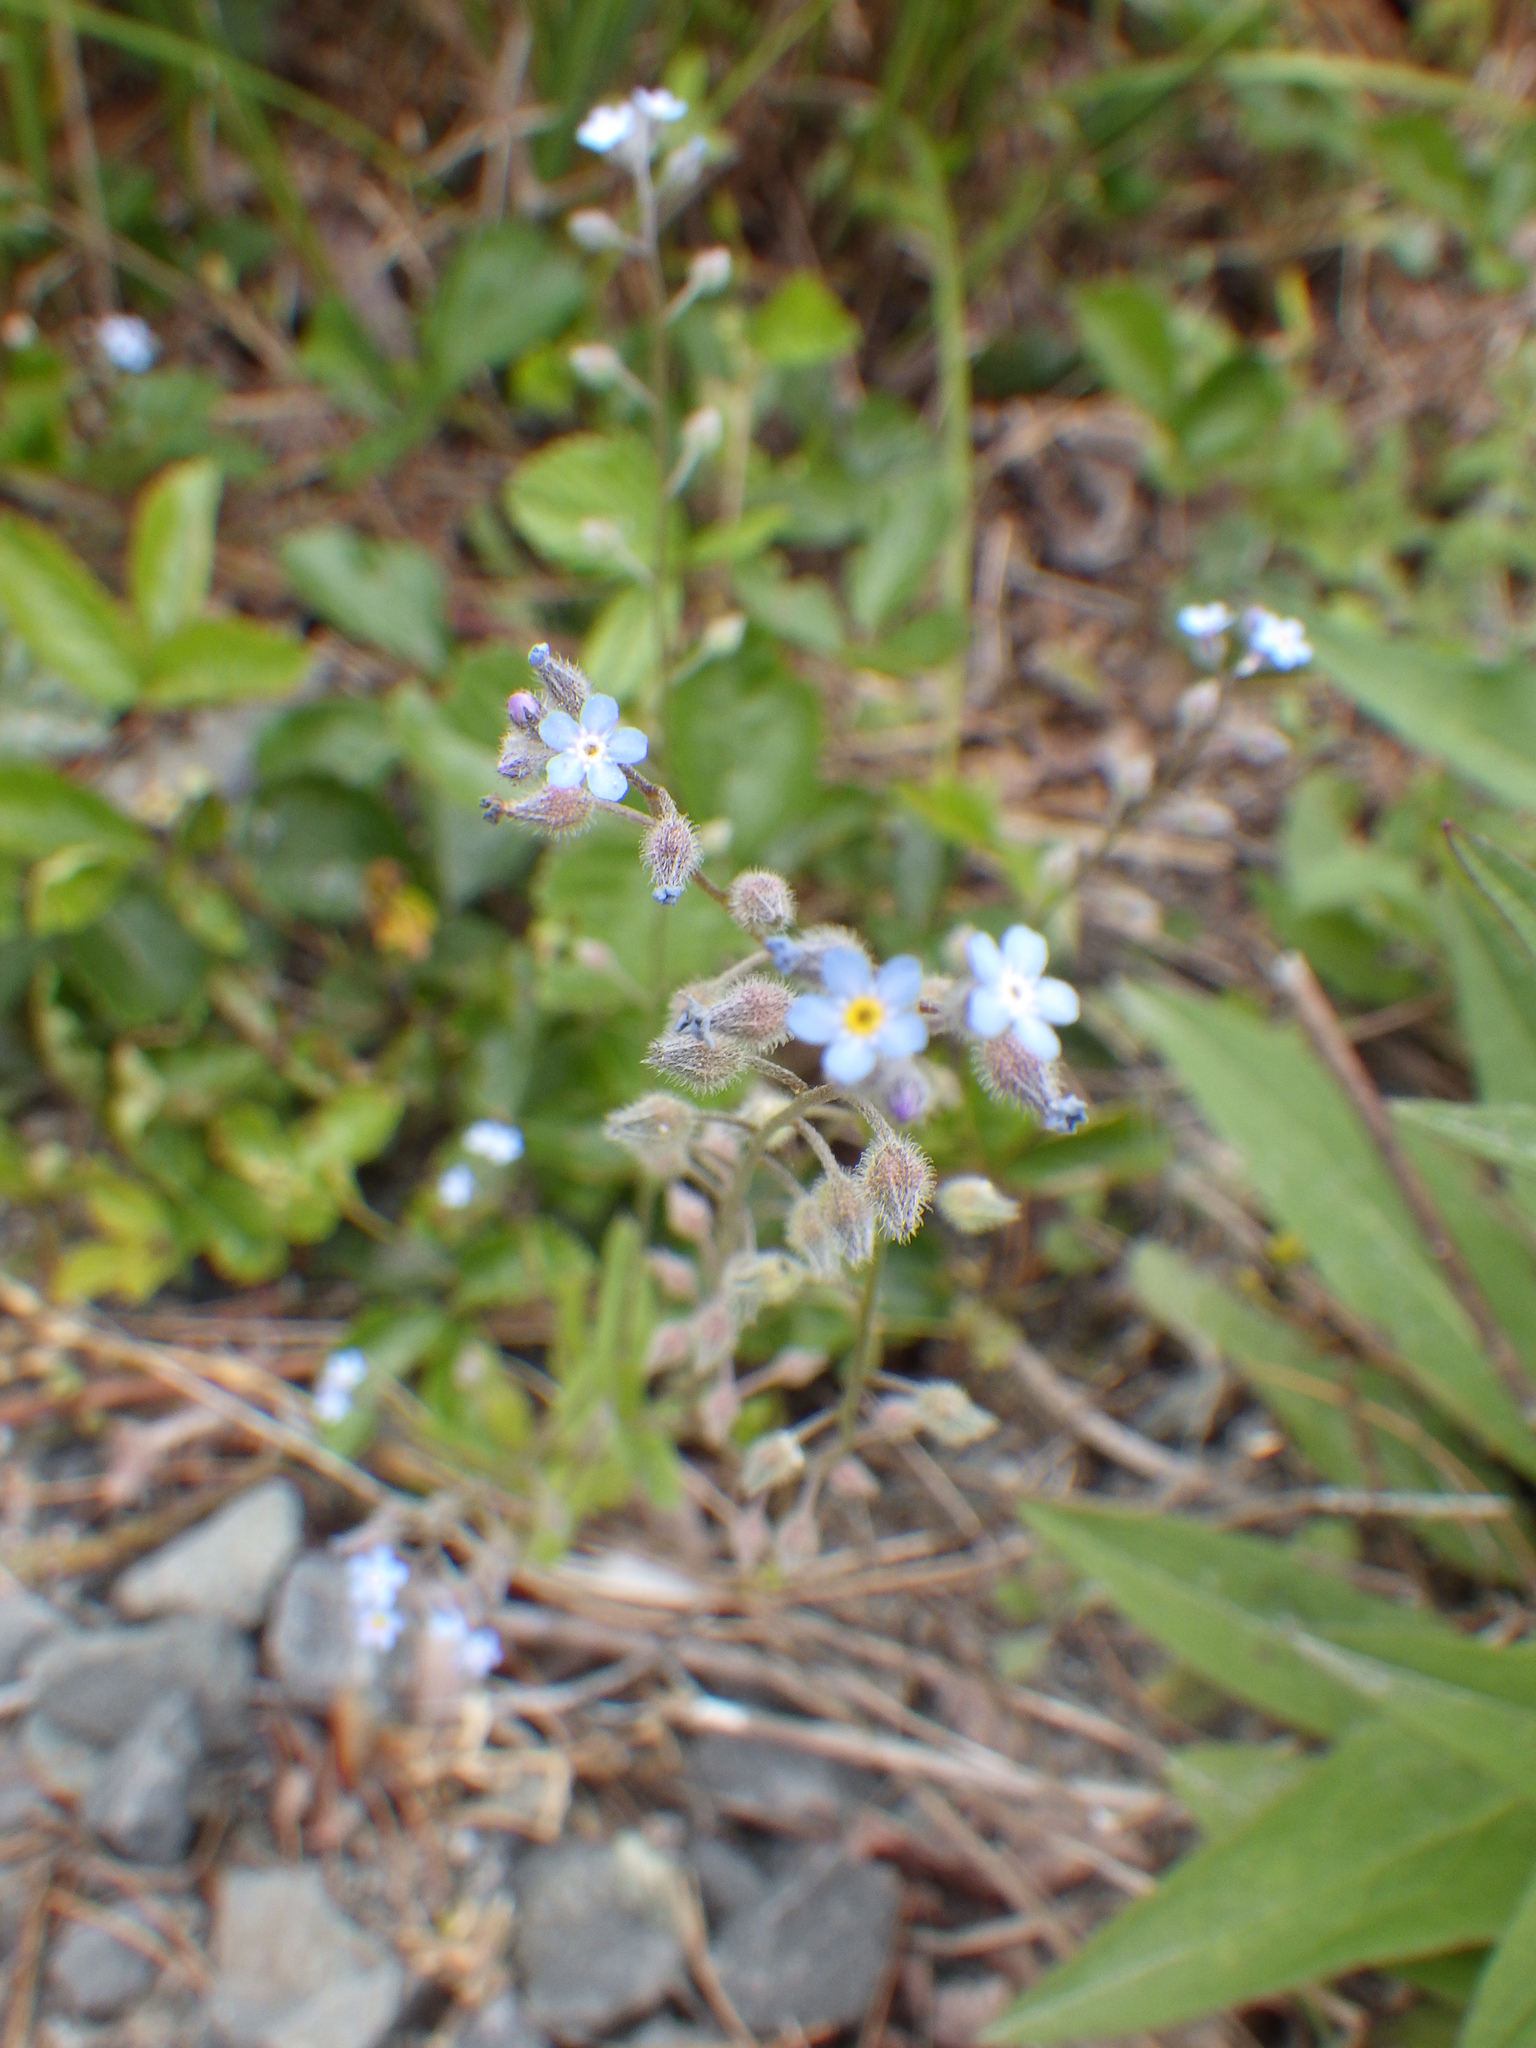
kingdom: Plantae
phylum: Tracheophyta
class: Magnoliopsida
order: Boraginales
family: Boraginaceae
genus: Myosotis
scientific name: Myosotis arvensis
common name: Field forget-me-not
